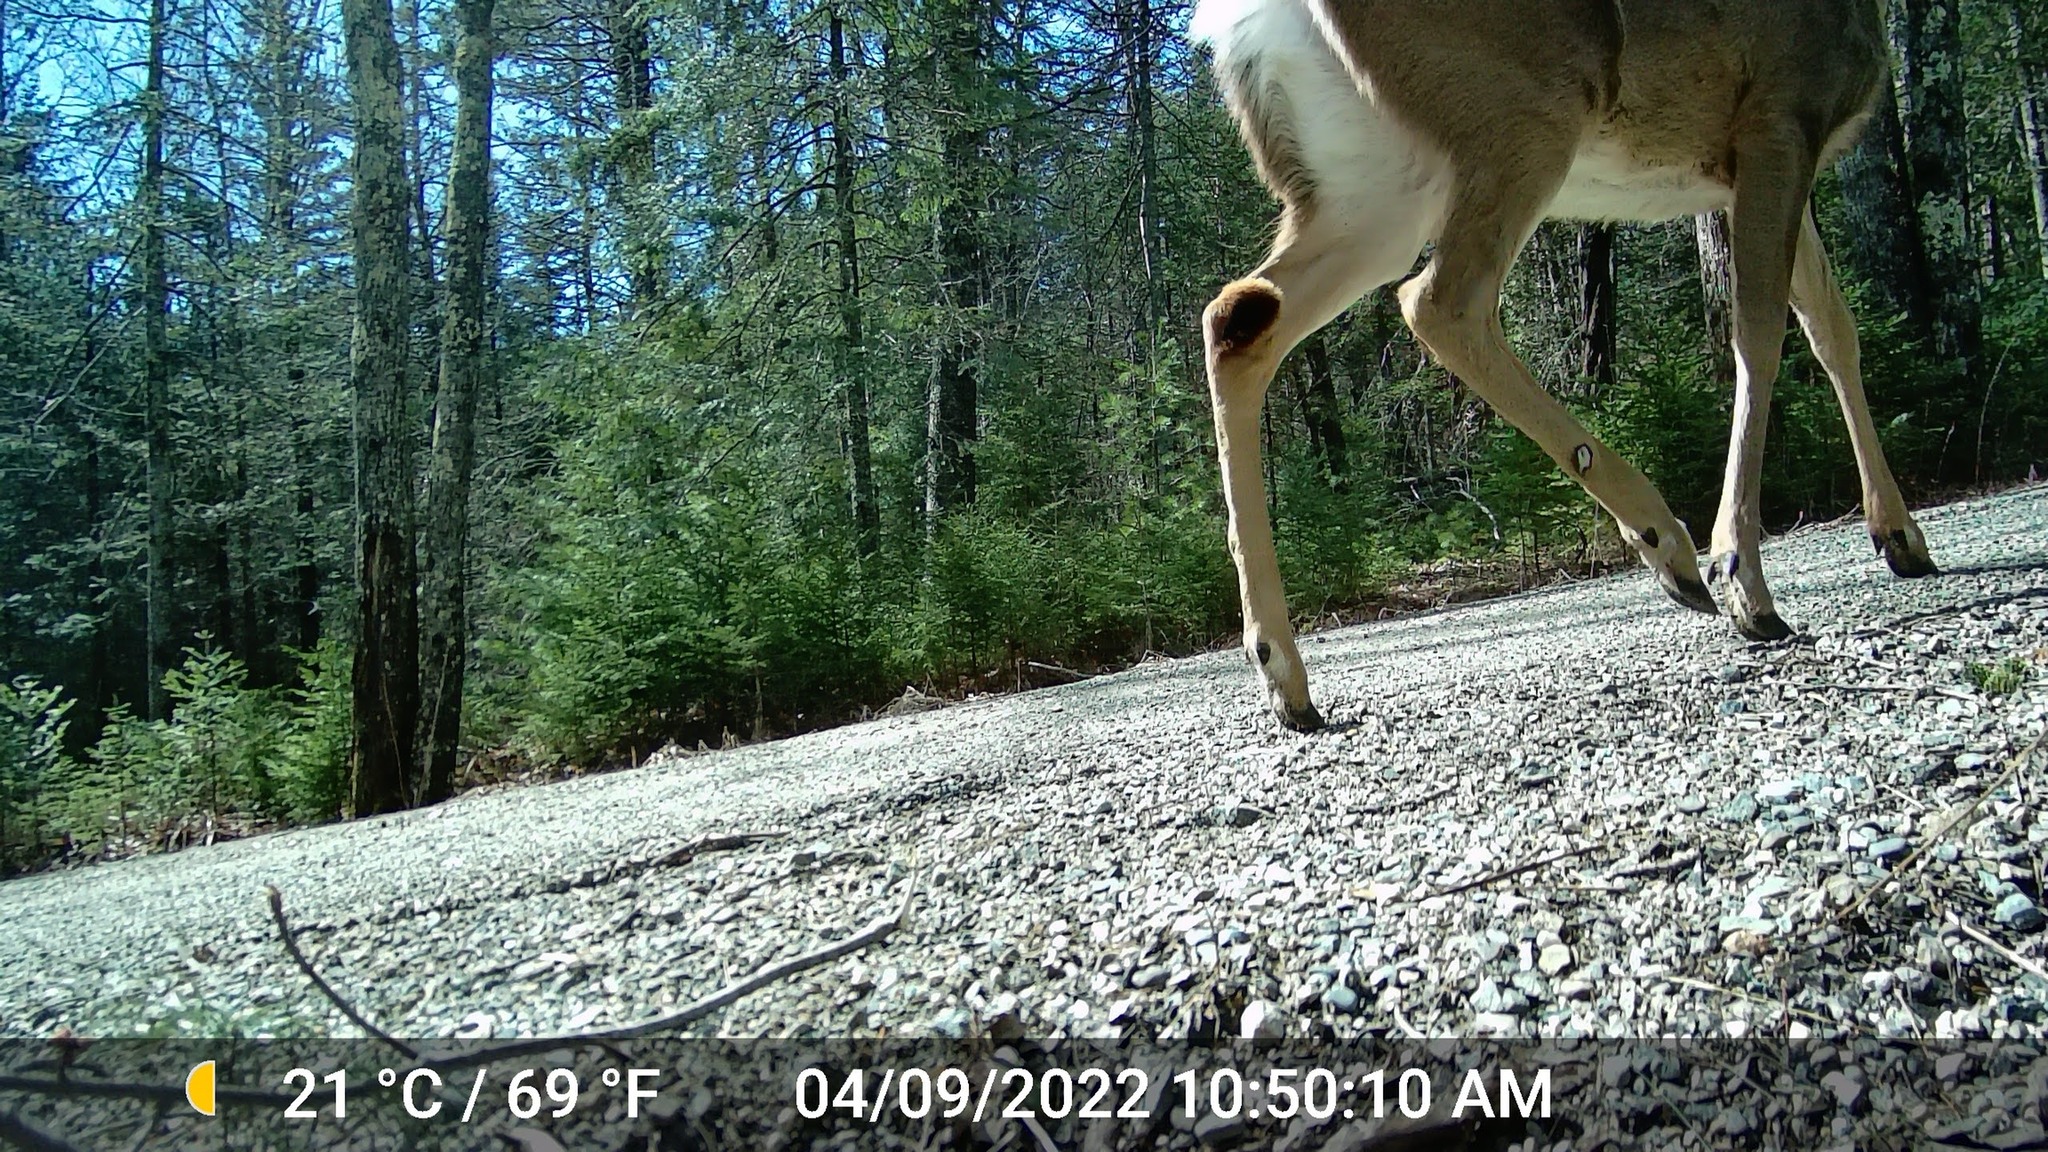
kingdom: Animalia
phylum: Chordata
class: Mammalia
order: Artiodactyla
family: Cervidae
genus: Odocoileus
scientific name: Odocoileus virginianus
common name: White-tailed deer
